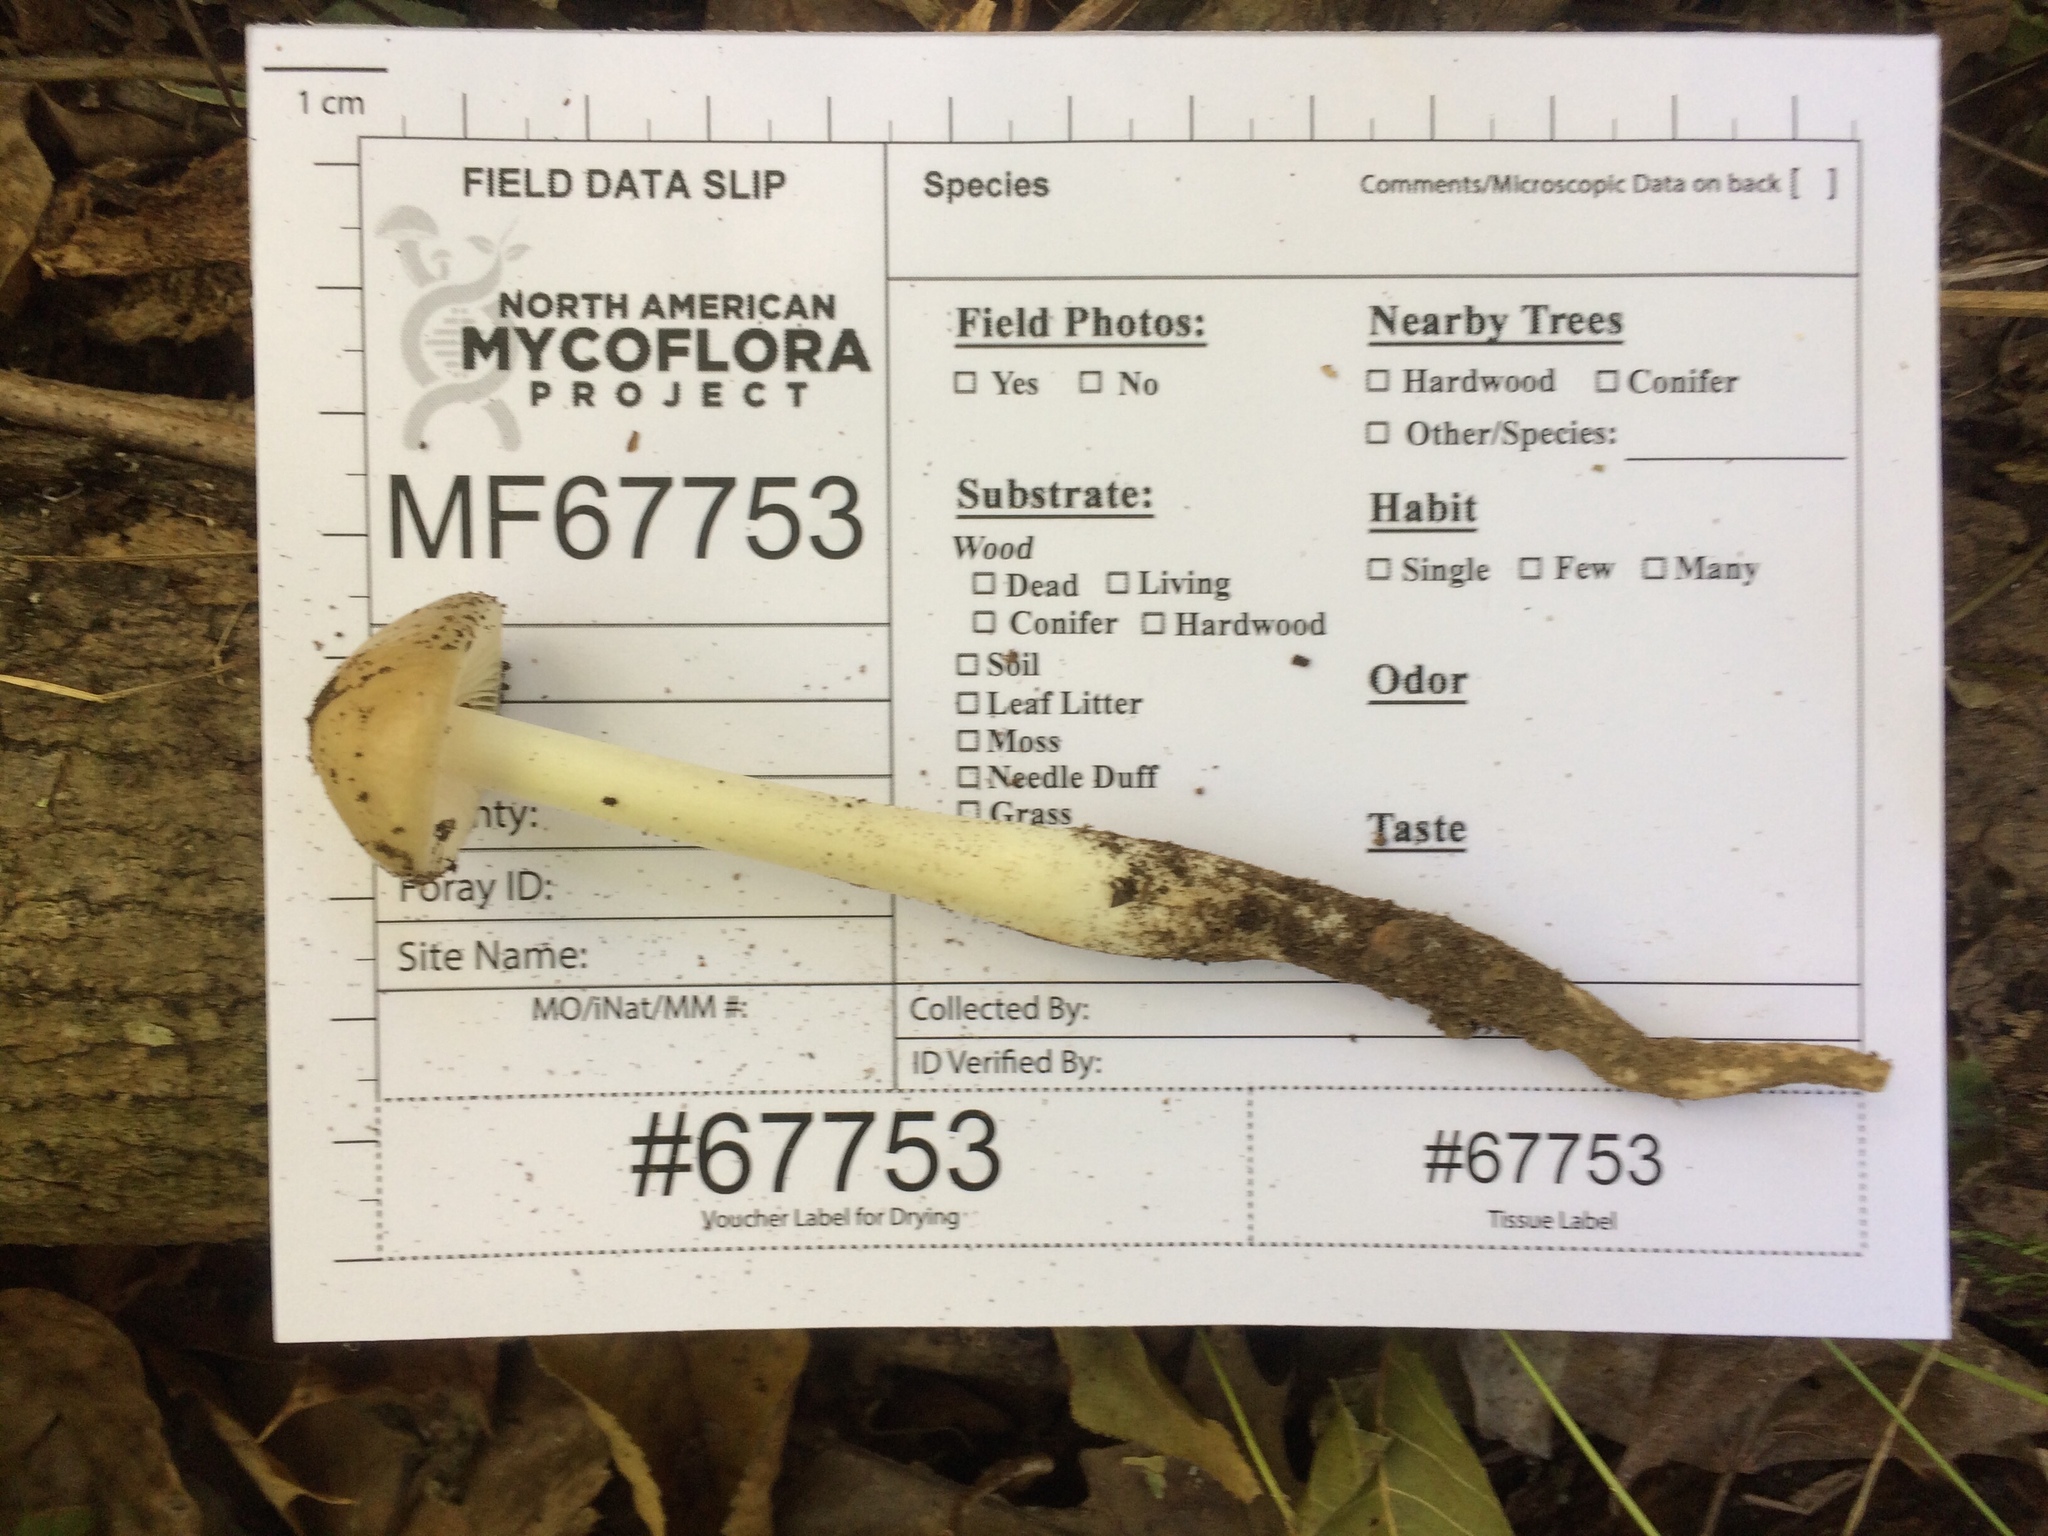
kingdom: Fungi
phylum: Basidiomycota
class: Agaricomycetes
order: Agaricales
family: Physalacriaceae
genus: Hymenopellis
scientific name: Hymenopellis megalospora
